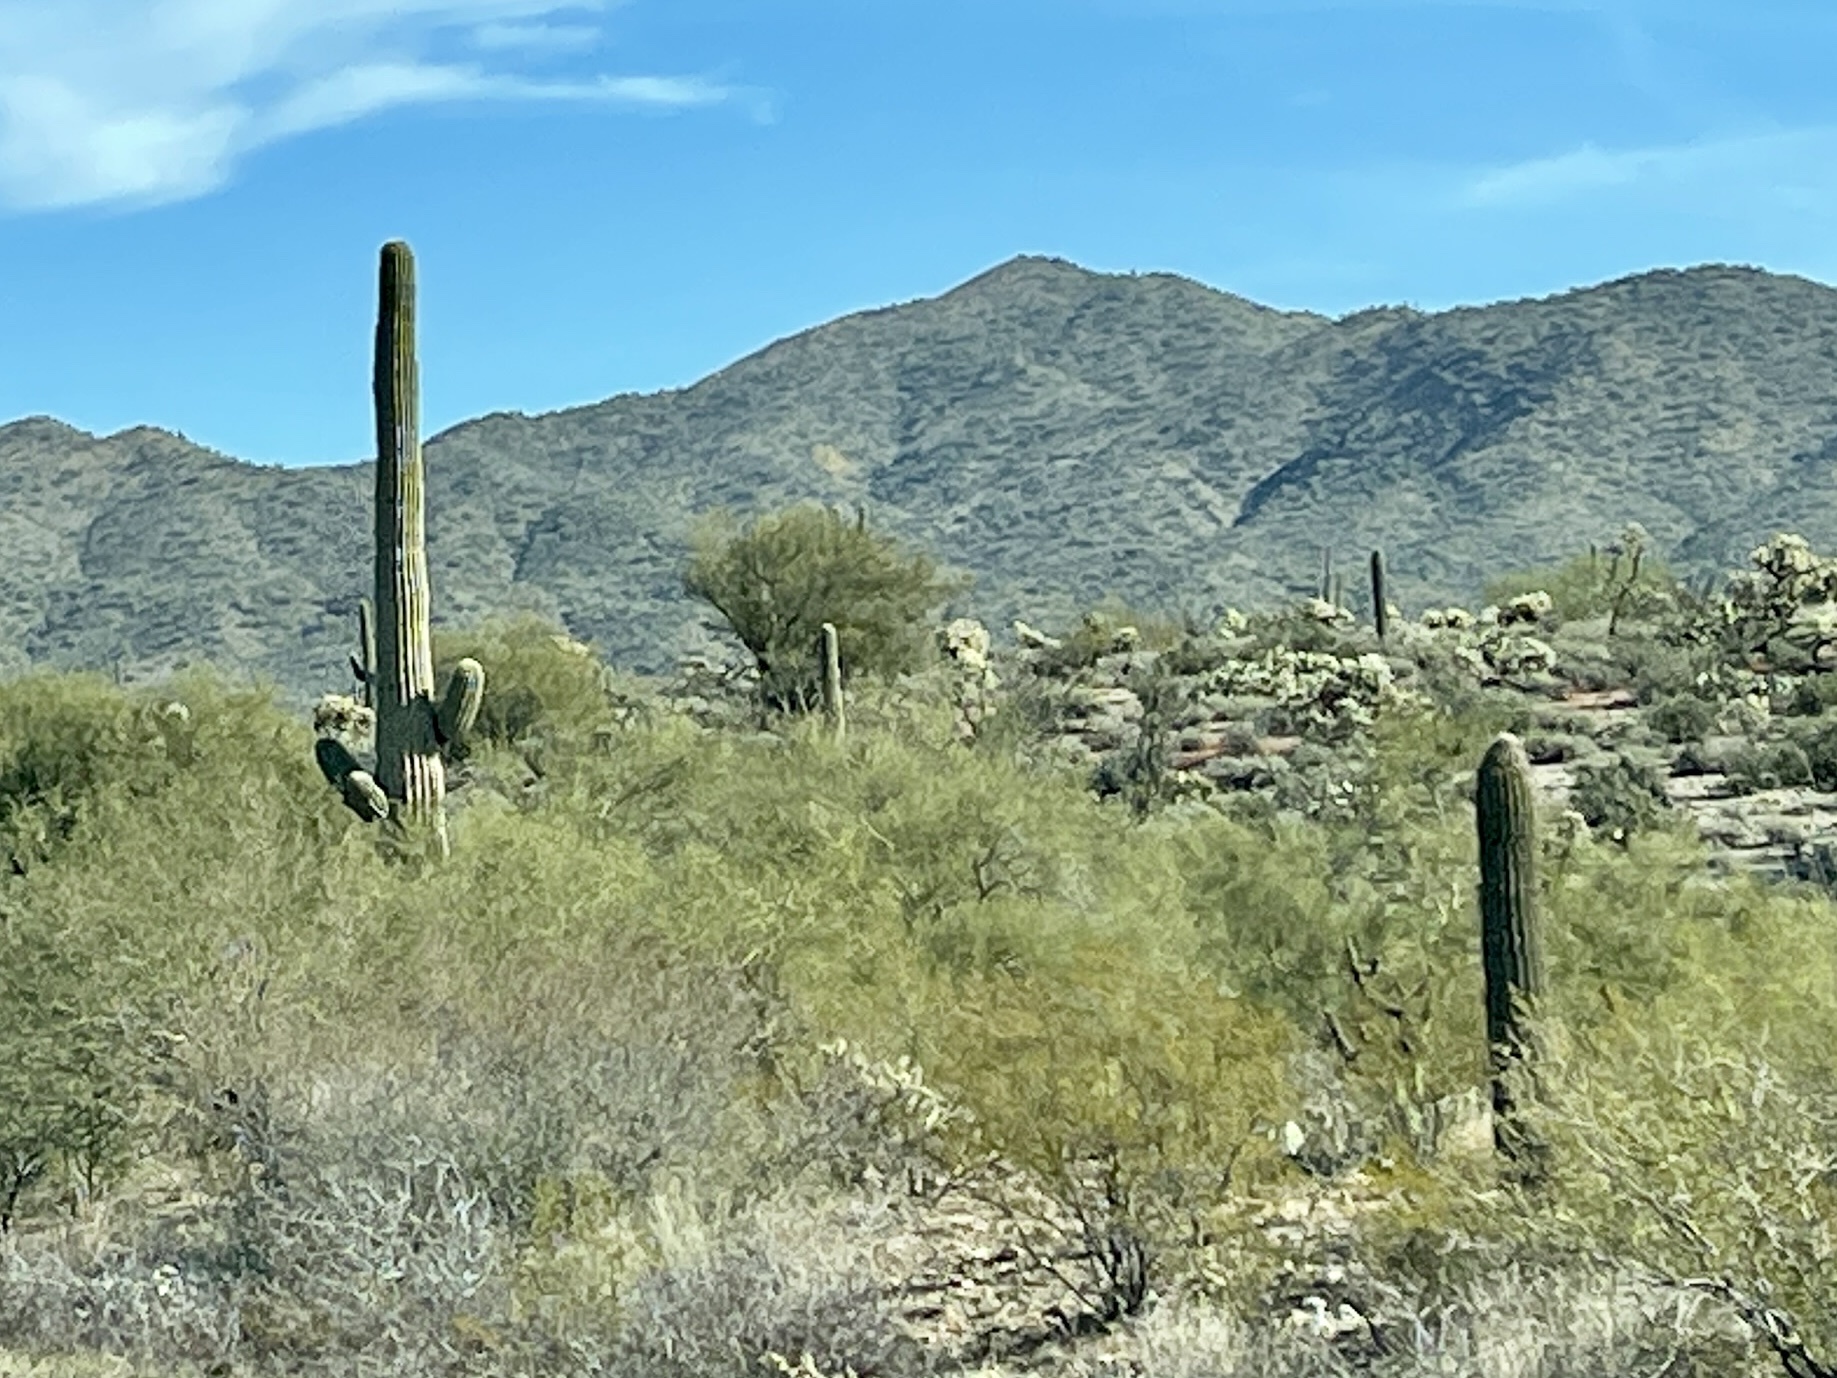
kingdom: Plantae
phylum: Tracheophyta
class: Magnoliopsida
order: Caryophyllales
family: Cactaceae
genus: Carnegiea
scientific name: Carnegiea gigantea
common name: Saguaro
